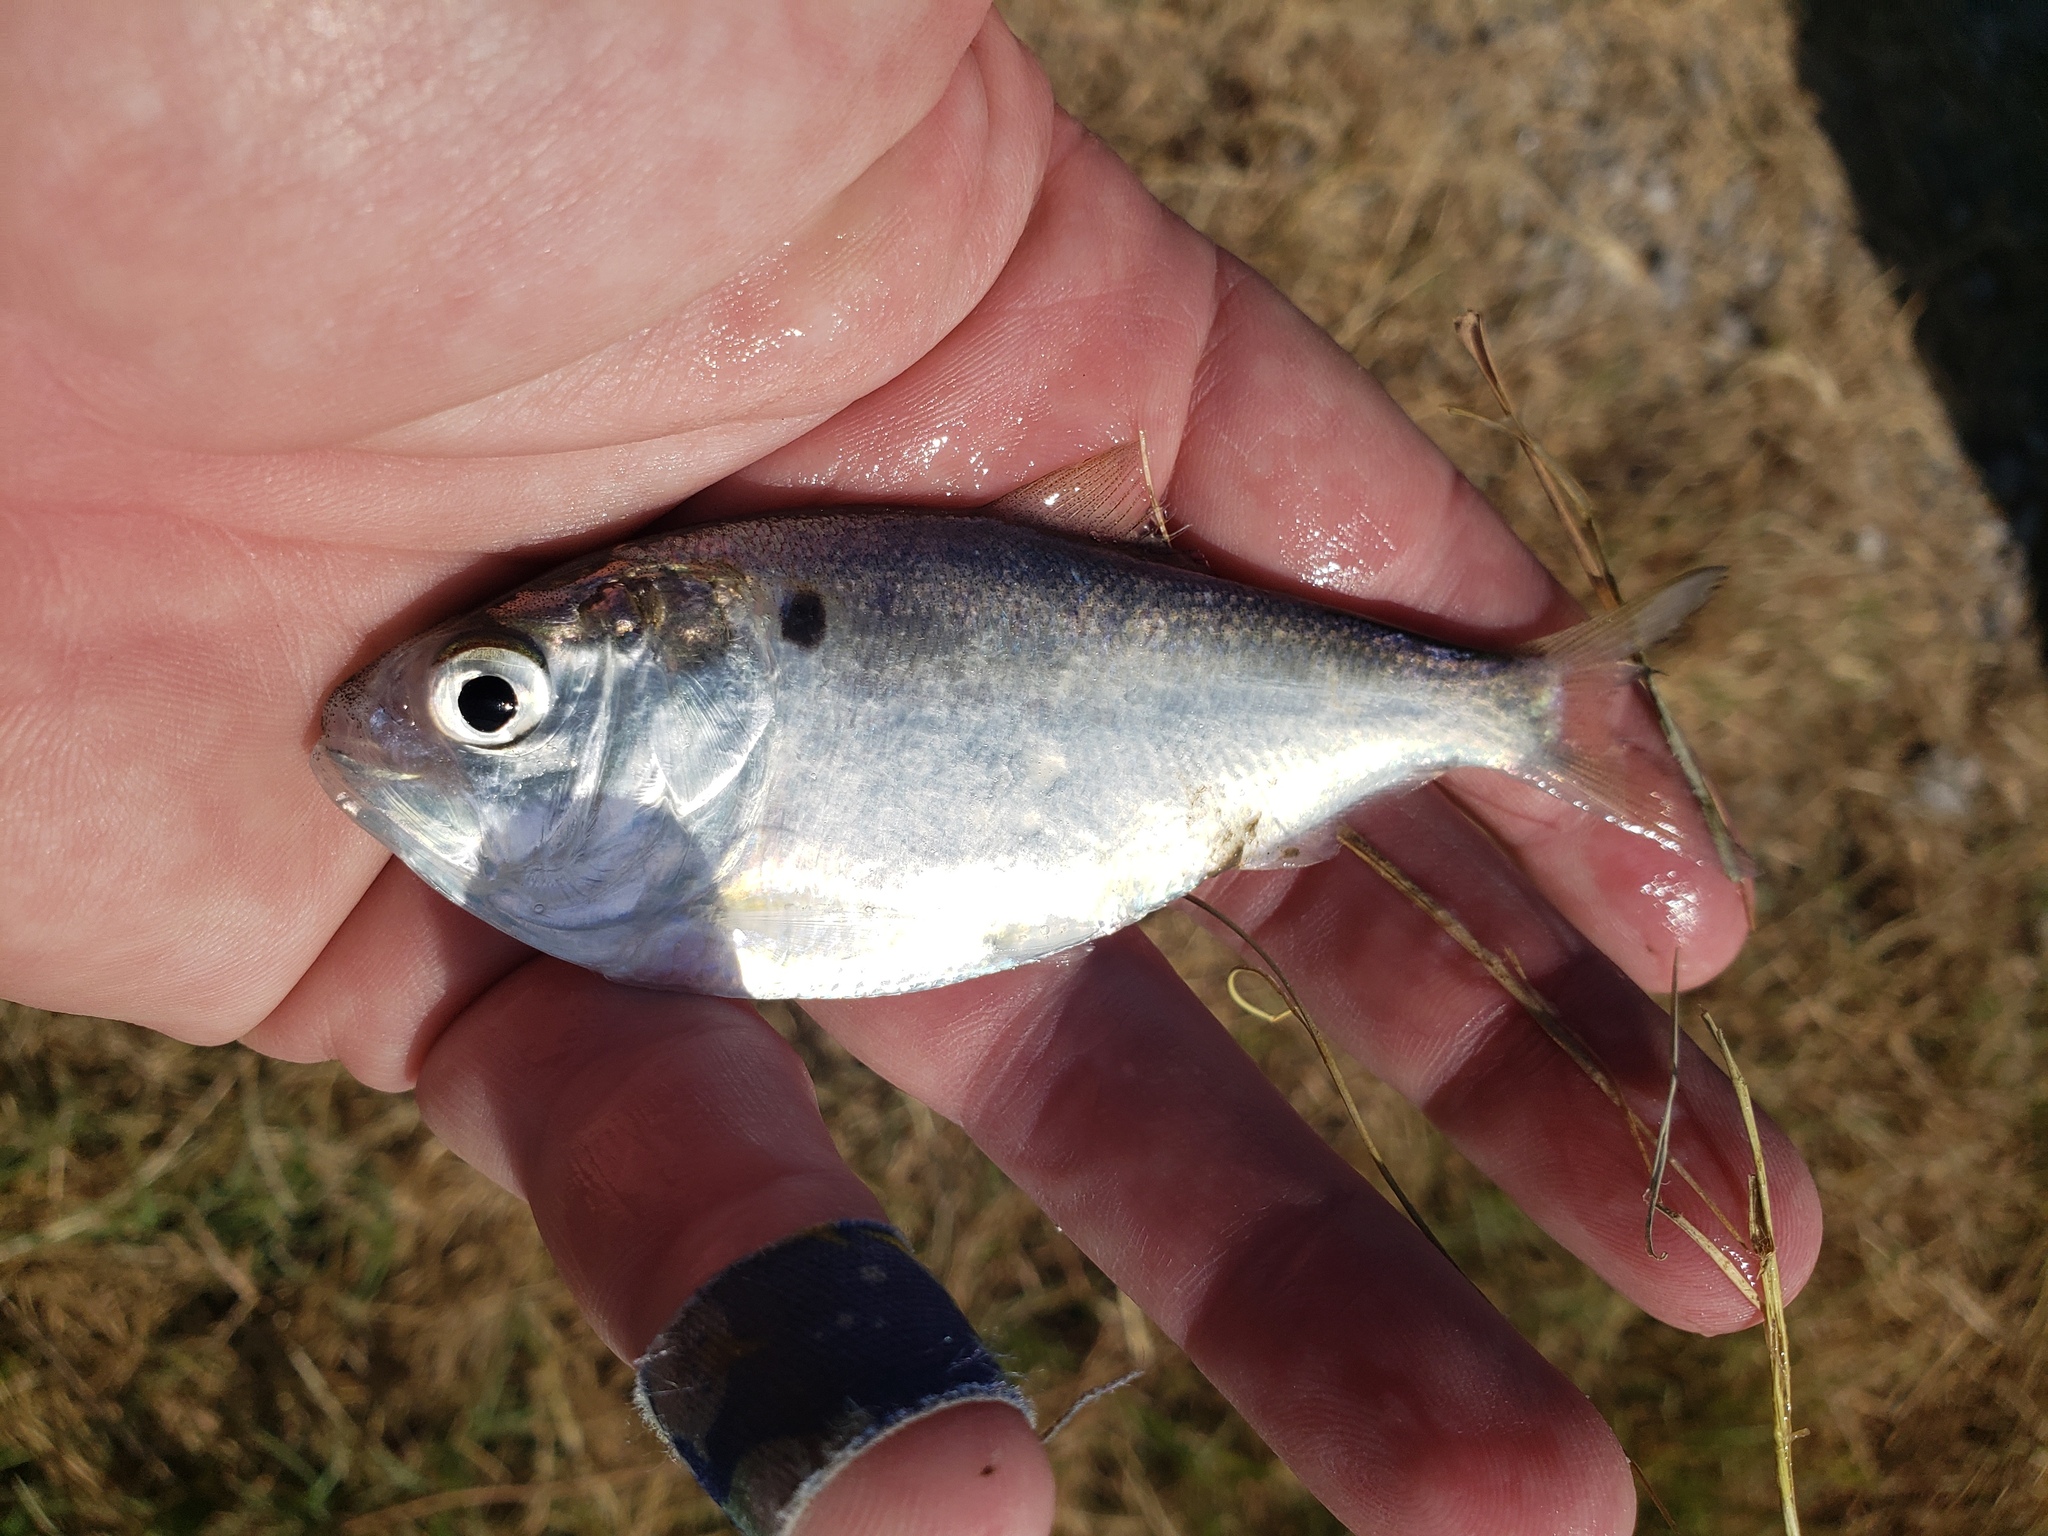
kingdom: Animalia
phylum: Chordata
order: Clupeiformes
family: Clupeidae
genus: Brevoortia
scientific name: Brevoortia patronus
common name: Gulf menhaden
